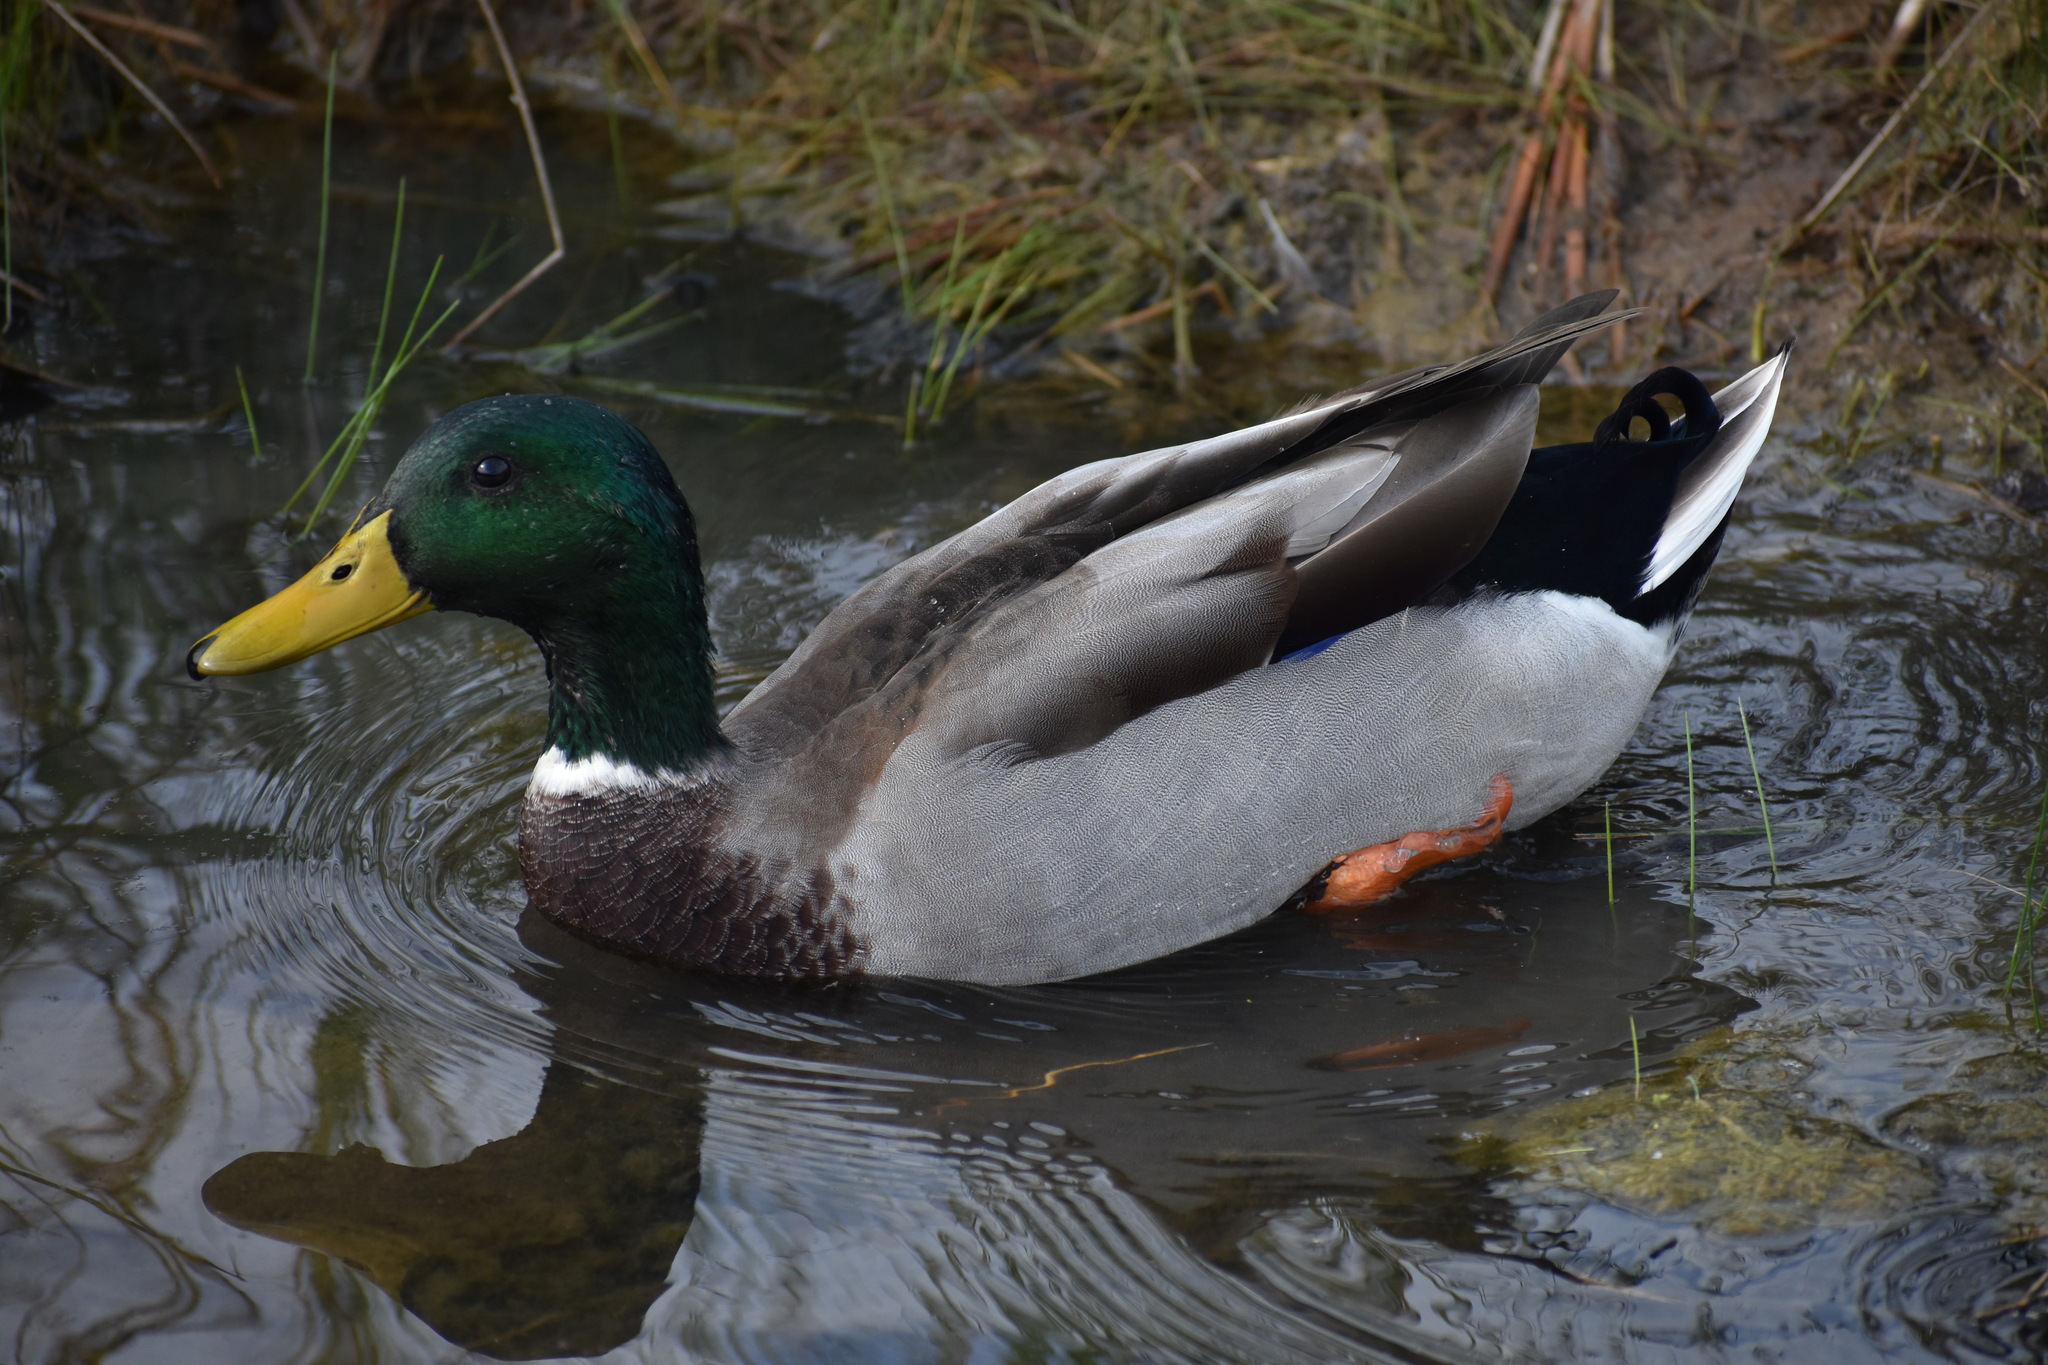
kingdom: Animalia
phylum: Chordata
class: Aves
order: Anseriformes
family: Anatidae
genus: Anas
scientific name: Anas platyrhynchos
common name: Mallard
